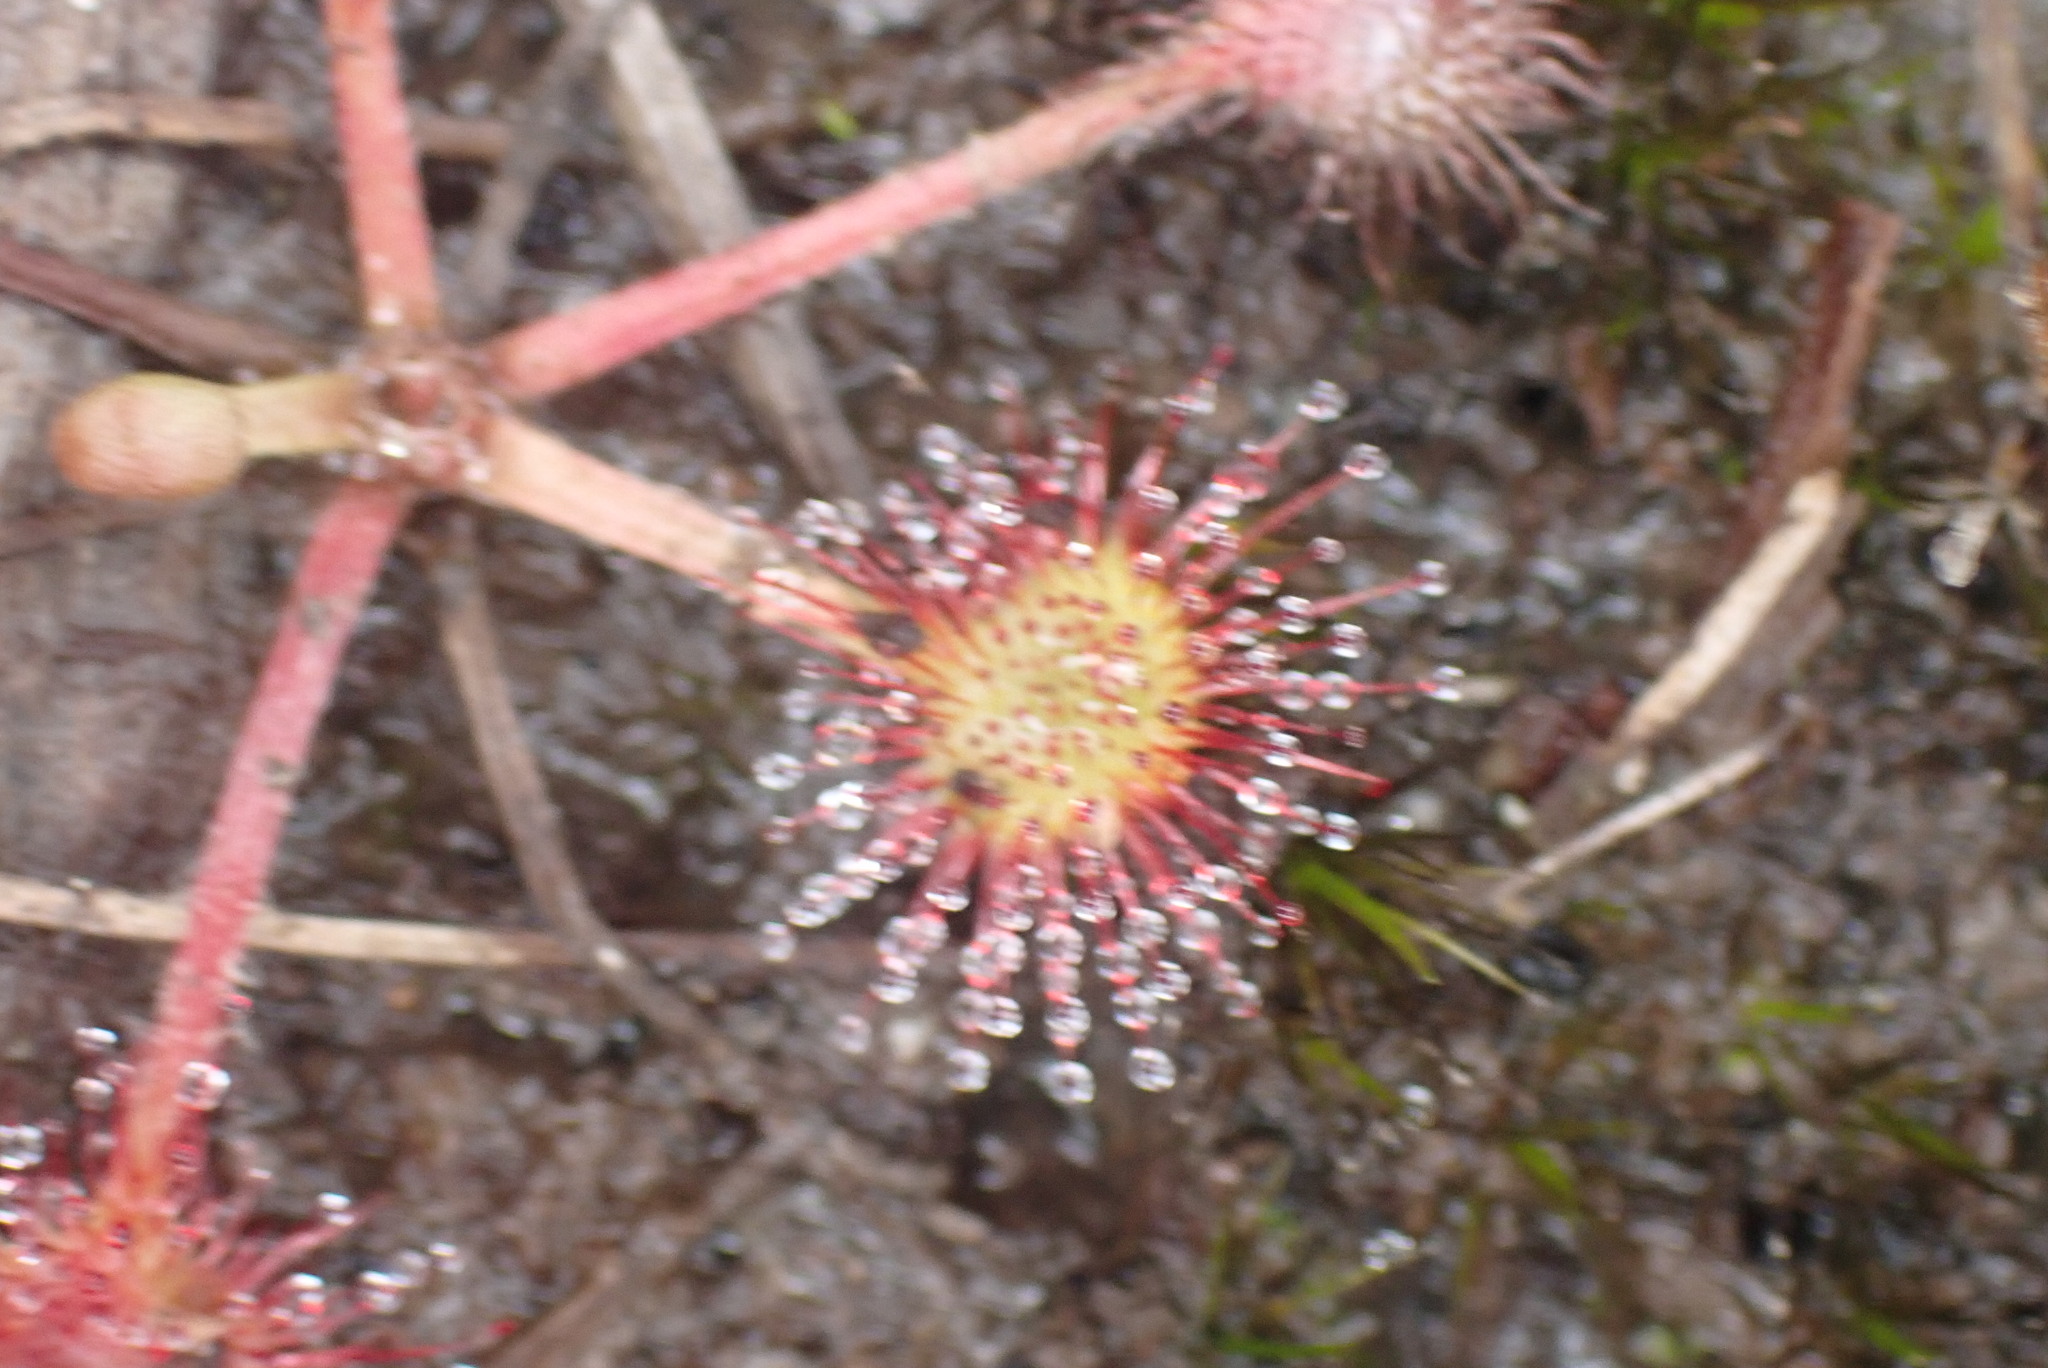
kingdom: Plantae
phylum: Tracheophyta
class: Magnoliopsida
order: Caryophyllales
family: Droseraceae
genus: Drosera
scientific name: Drosera rotundifolia
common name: Round-leaved sundew
